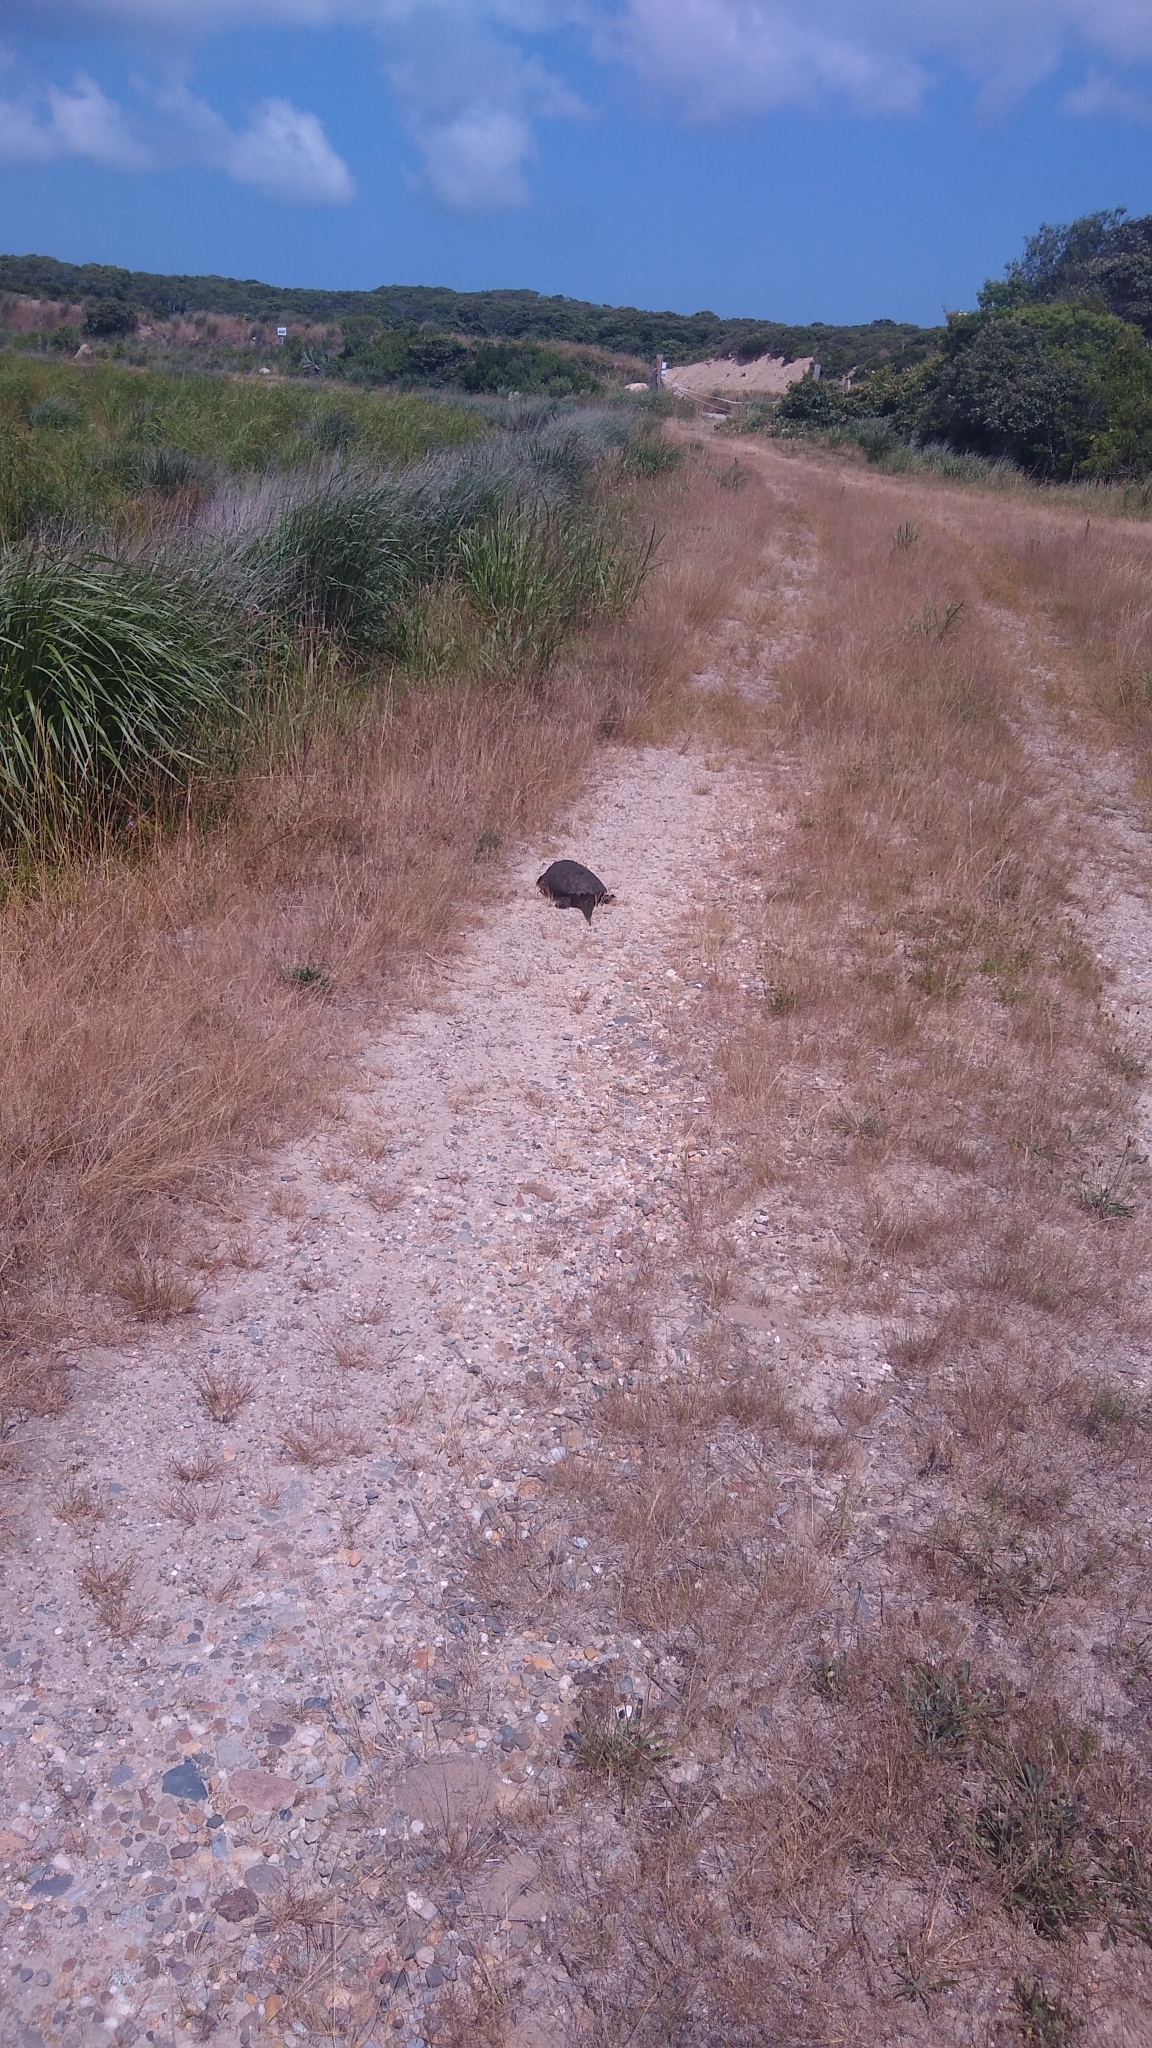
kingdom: Animalia
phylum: Chordata
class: Testudines
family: Chelydridae
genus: Chelydra
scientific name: Chelydra serpentina
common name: Common snapping turtle
